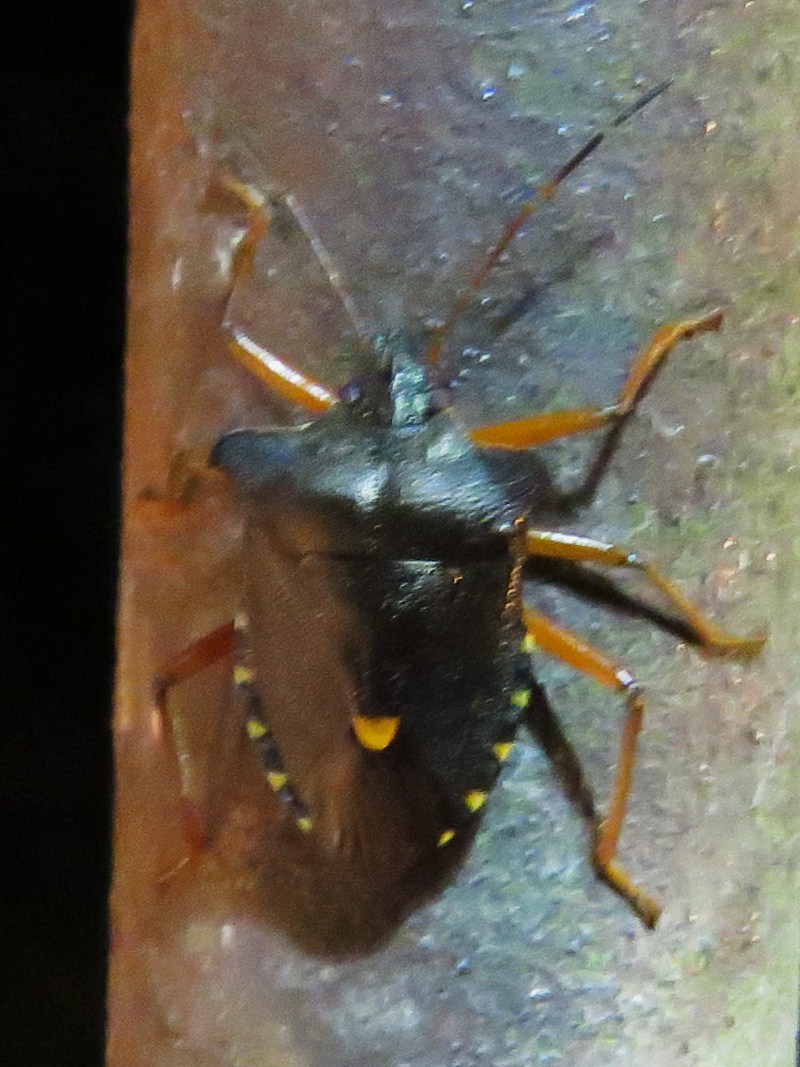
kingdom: Animalia
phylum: Arthropoda
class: Insecta
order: Hemiptera
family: Pentatomidae
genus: Pentatoma
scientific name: Pentatoma rufipes
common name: Forest bug
